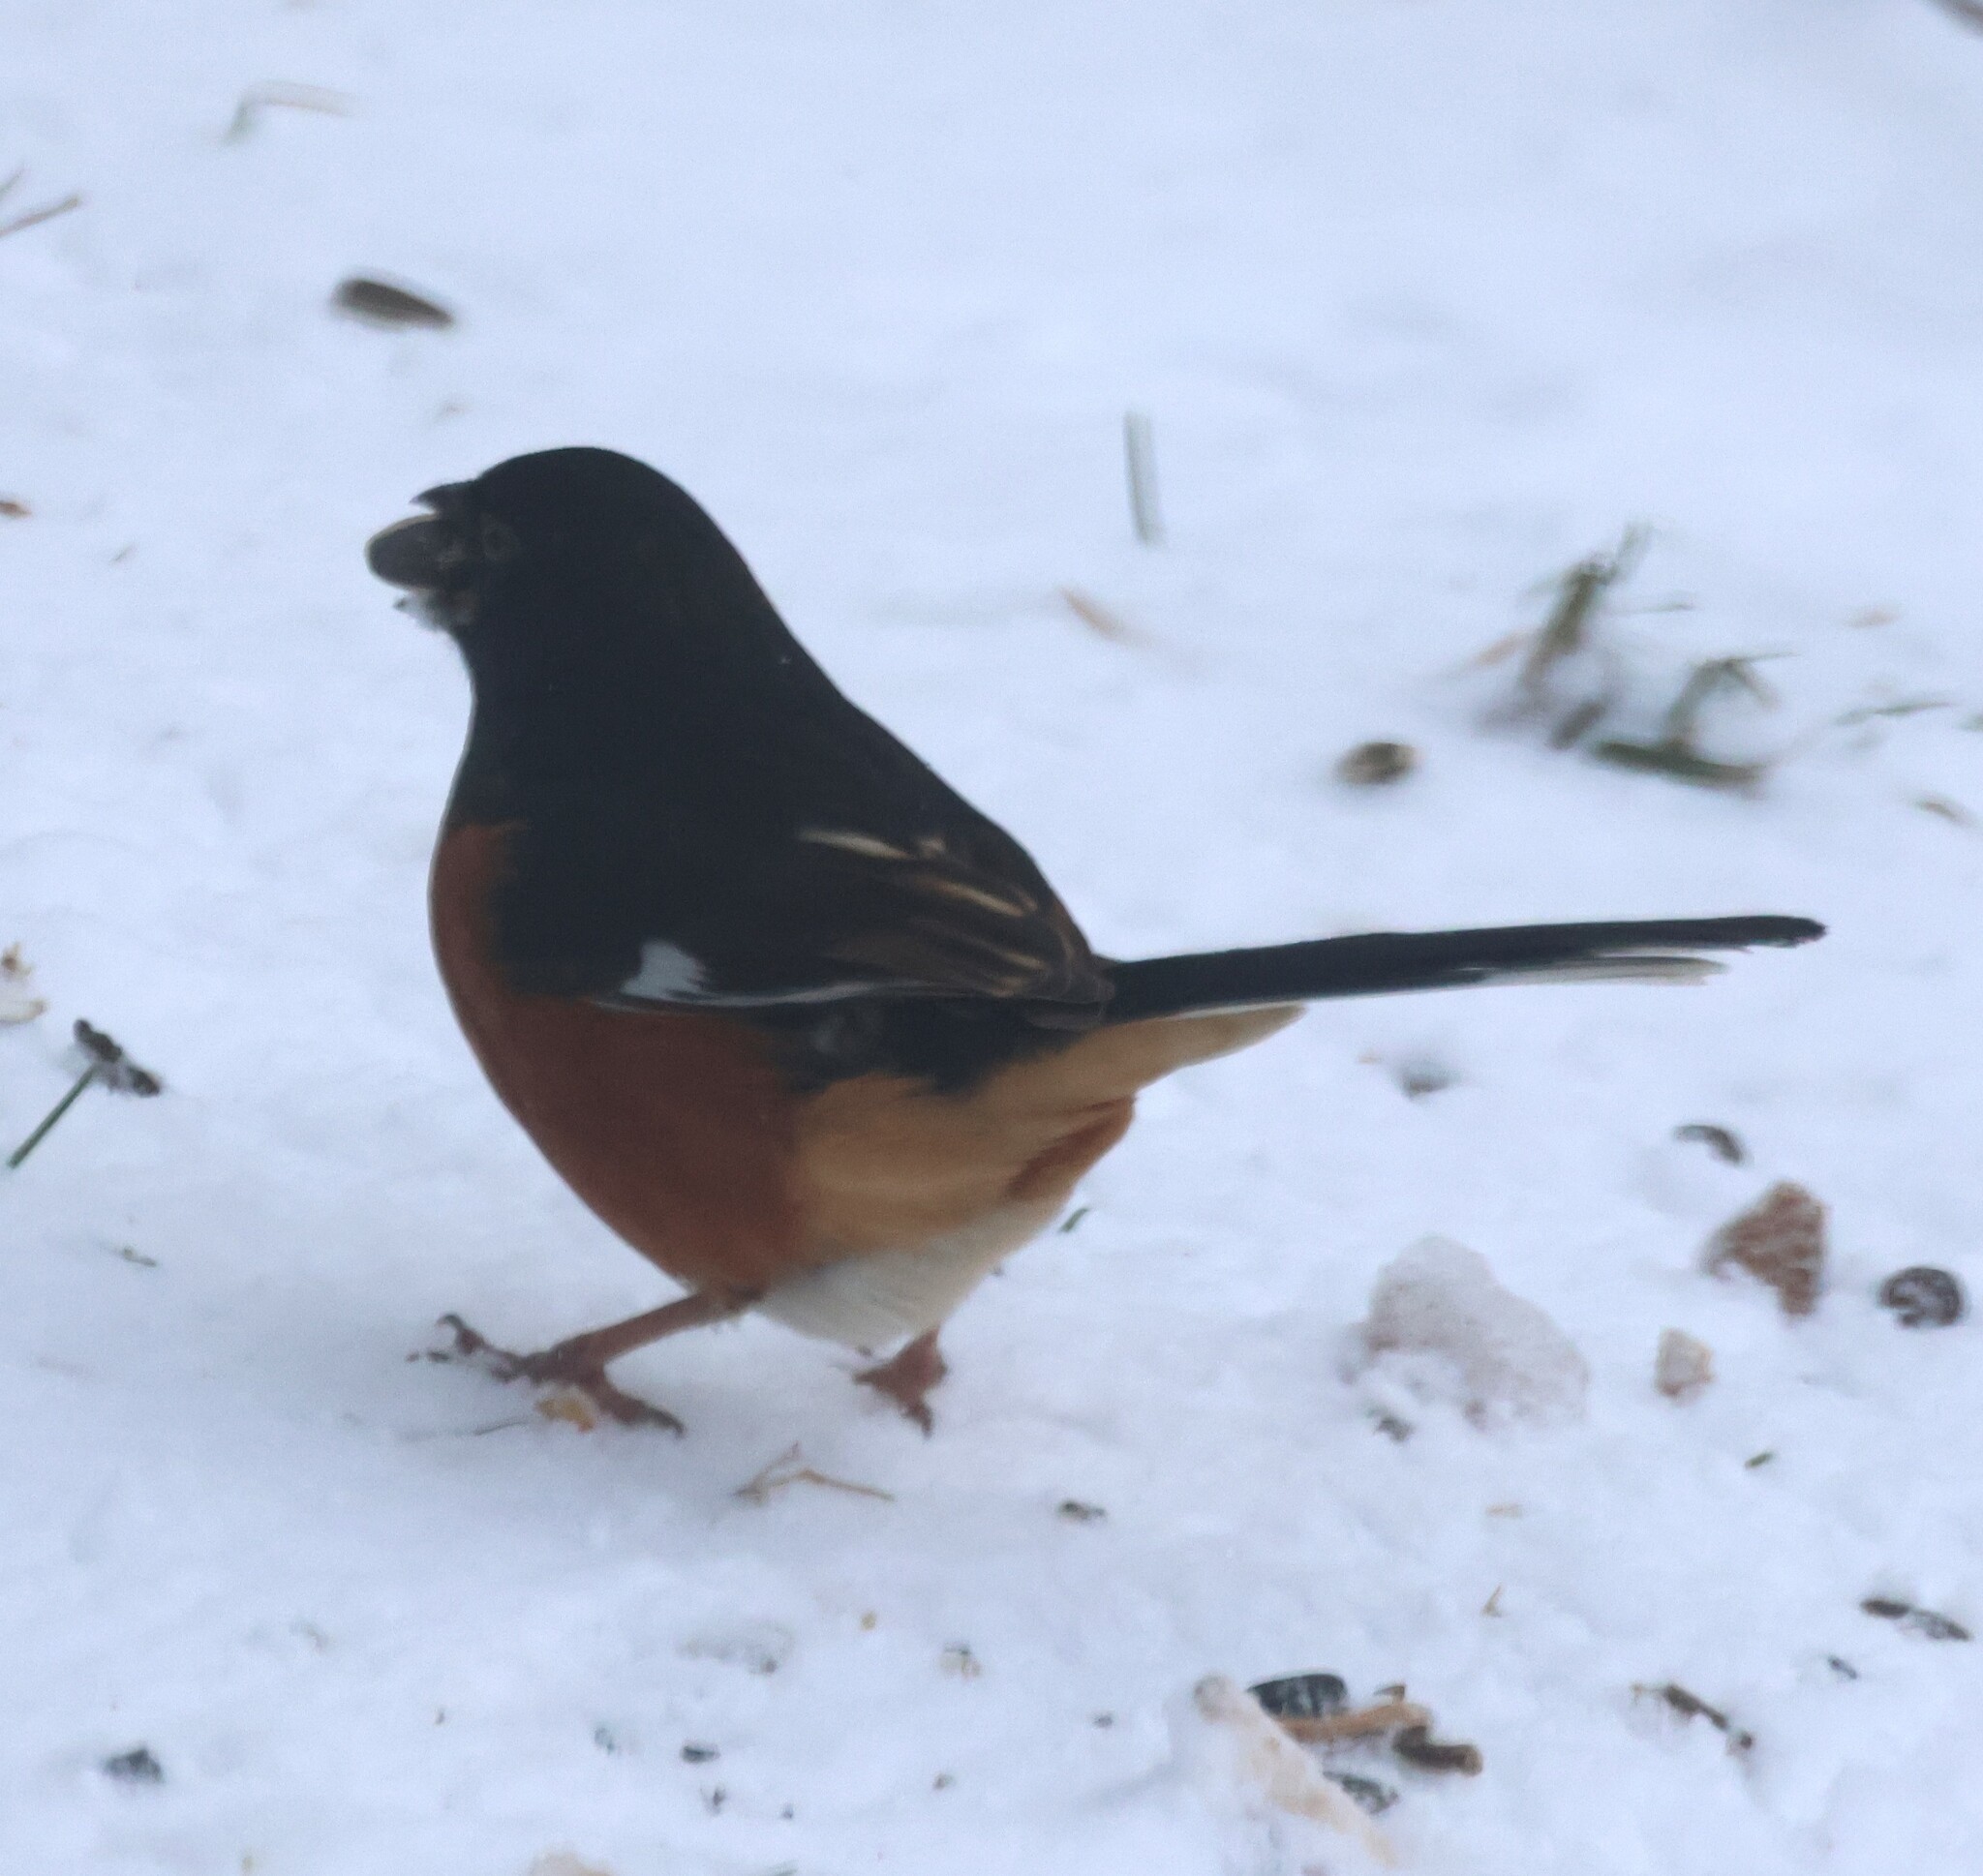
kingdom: Animalia
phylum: Chordata
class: Aves
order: Passeriformes
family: Passerellidae
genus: Pipilo
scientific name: Pipilo erythrophthalmus
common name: Eastern towhee
